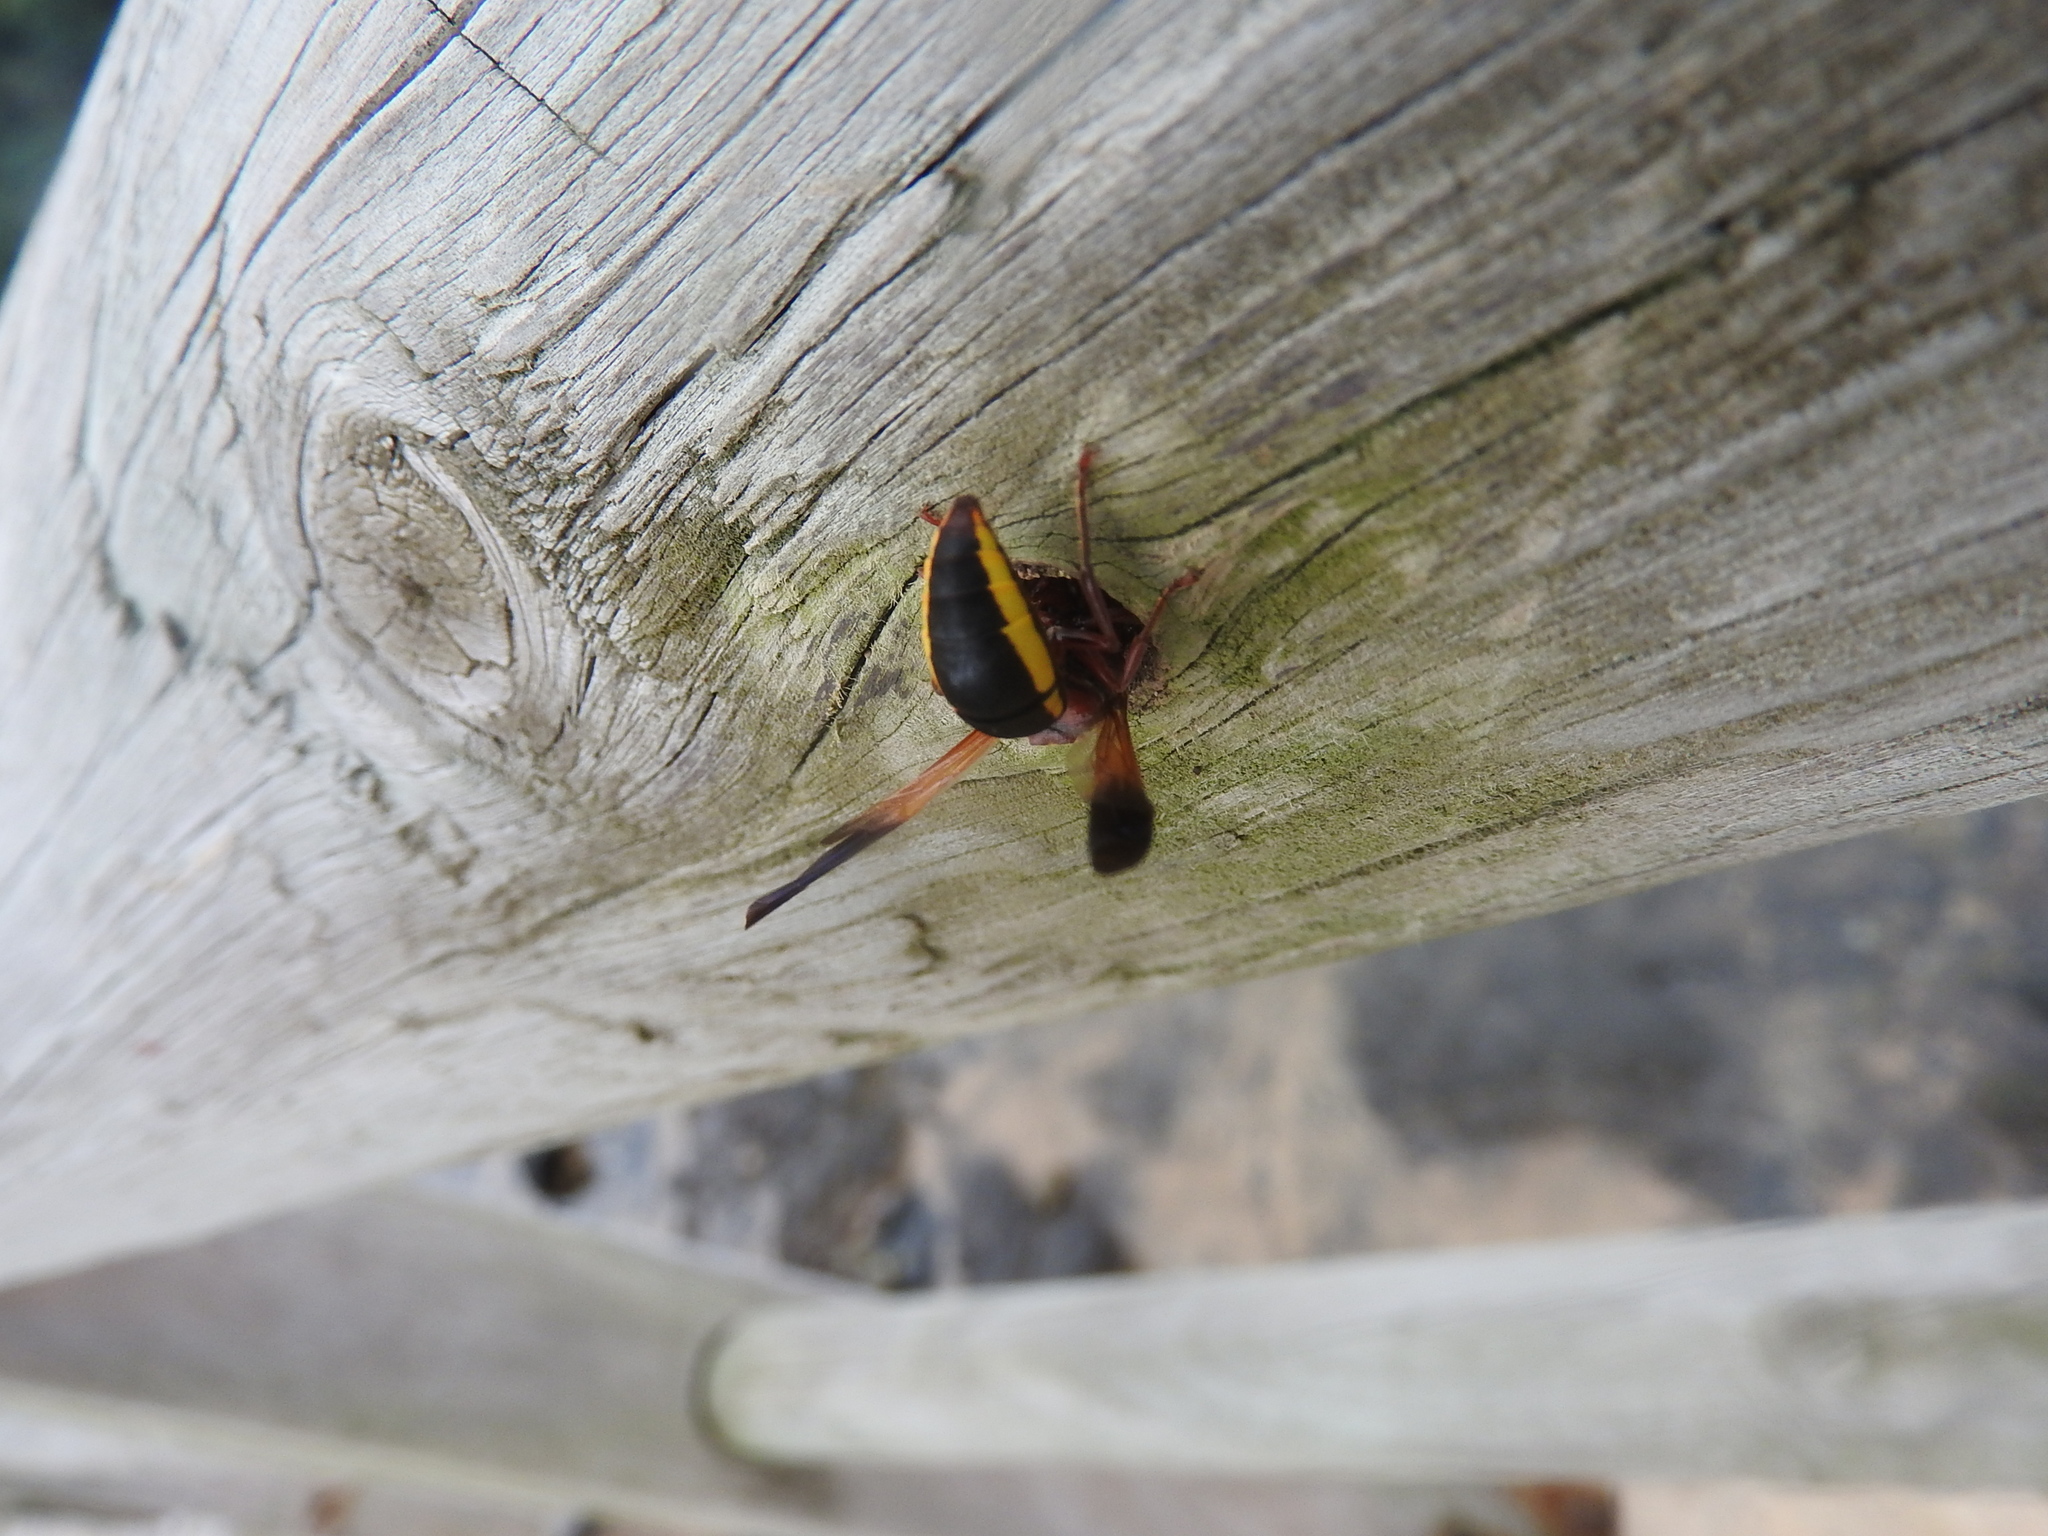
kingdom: Animalia
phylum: Arthropoda
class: Insecta
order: Hymenoptera
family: Eumenidae
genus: Rhynchium
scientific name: Rhynchium marginellum
